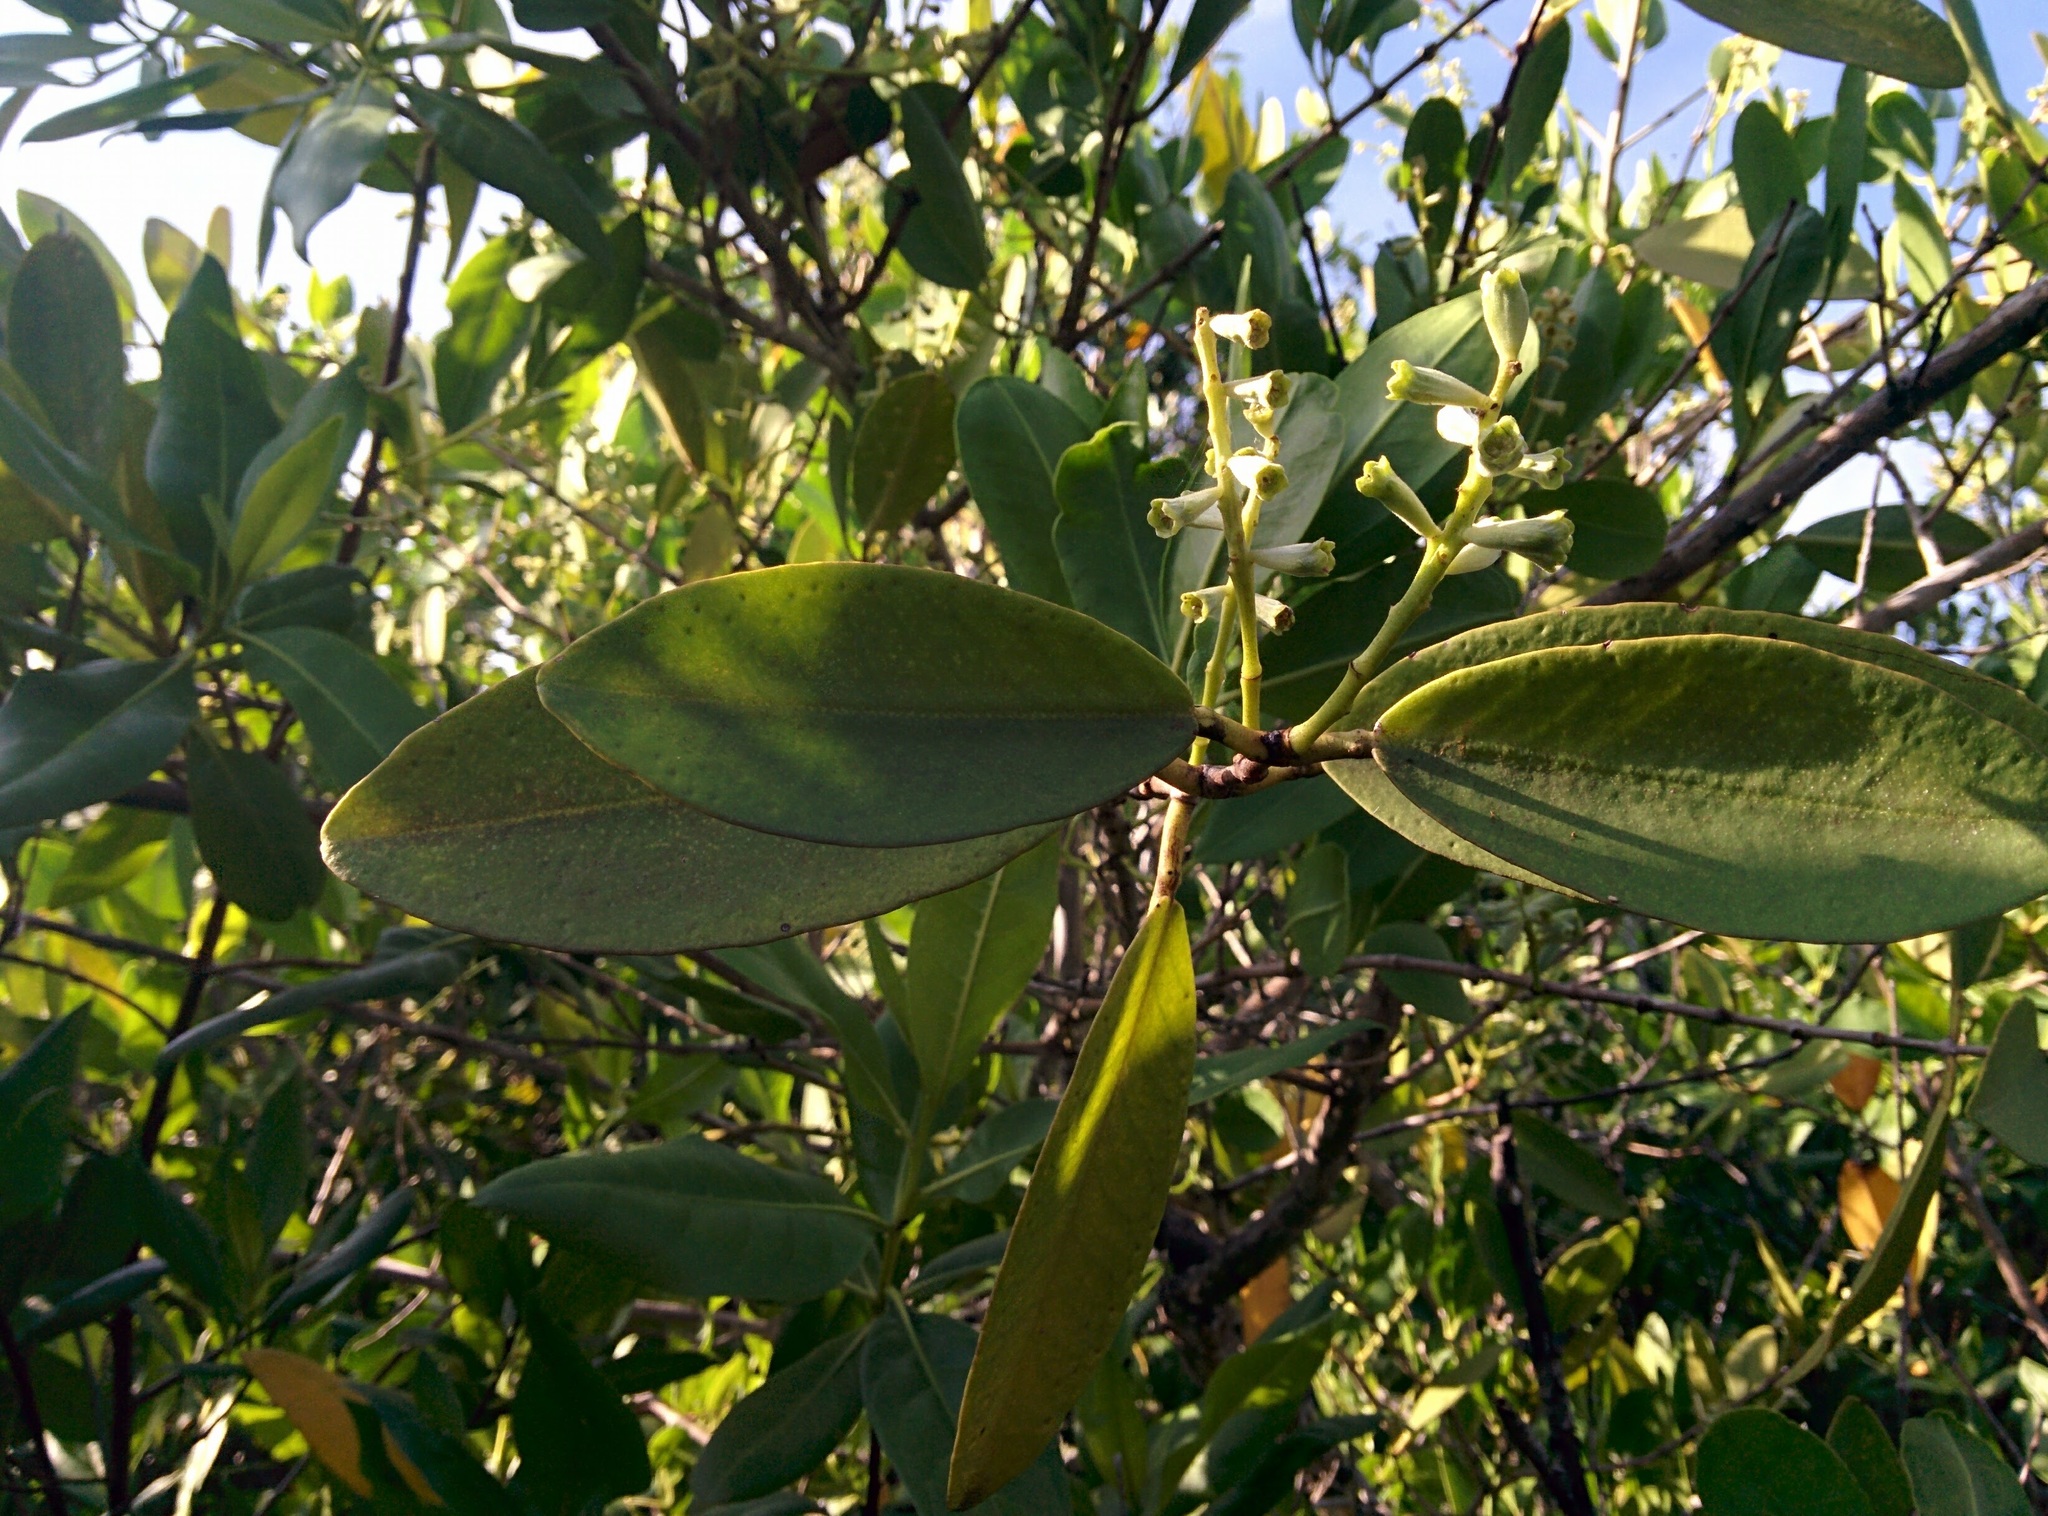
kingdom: Plantae
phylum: Tracheophyta
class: Magnoliopsida
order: Myrtales
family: Combretaceae
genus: Laguncularia
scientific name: Laguncularia racemosa
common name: White mangrove
